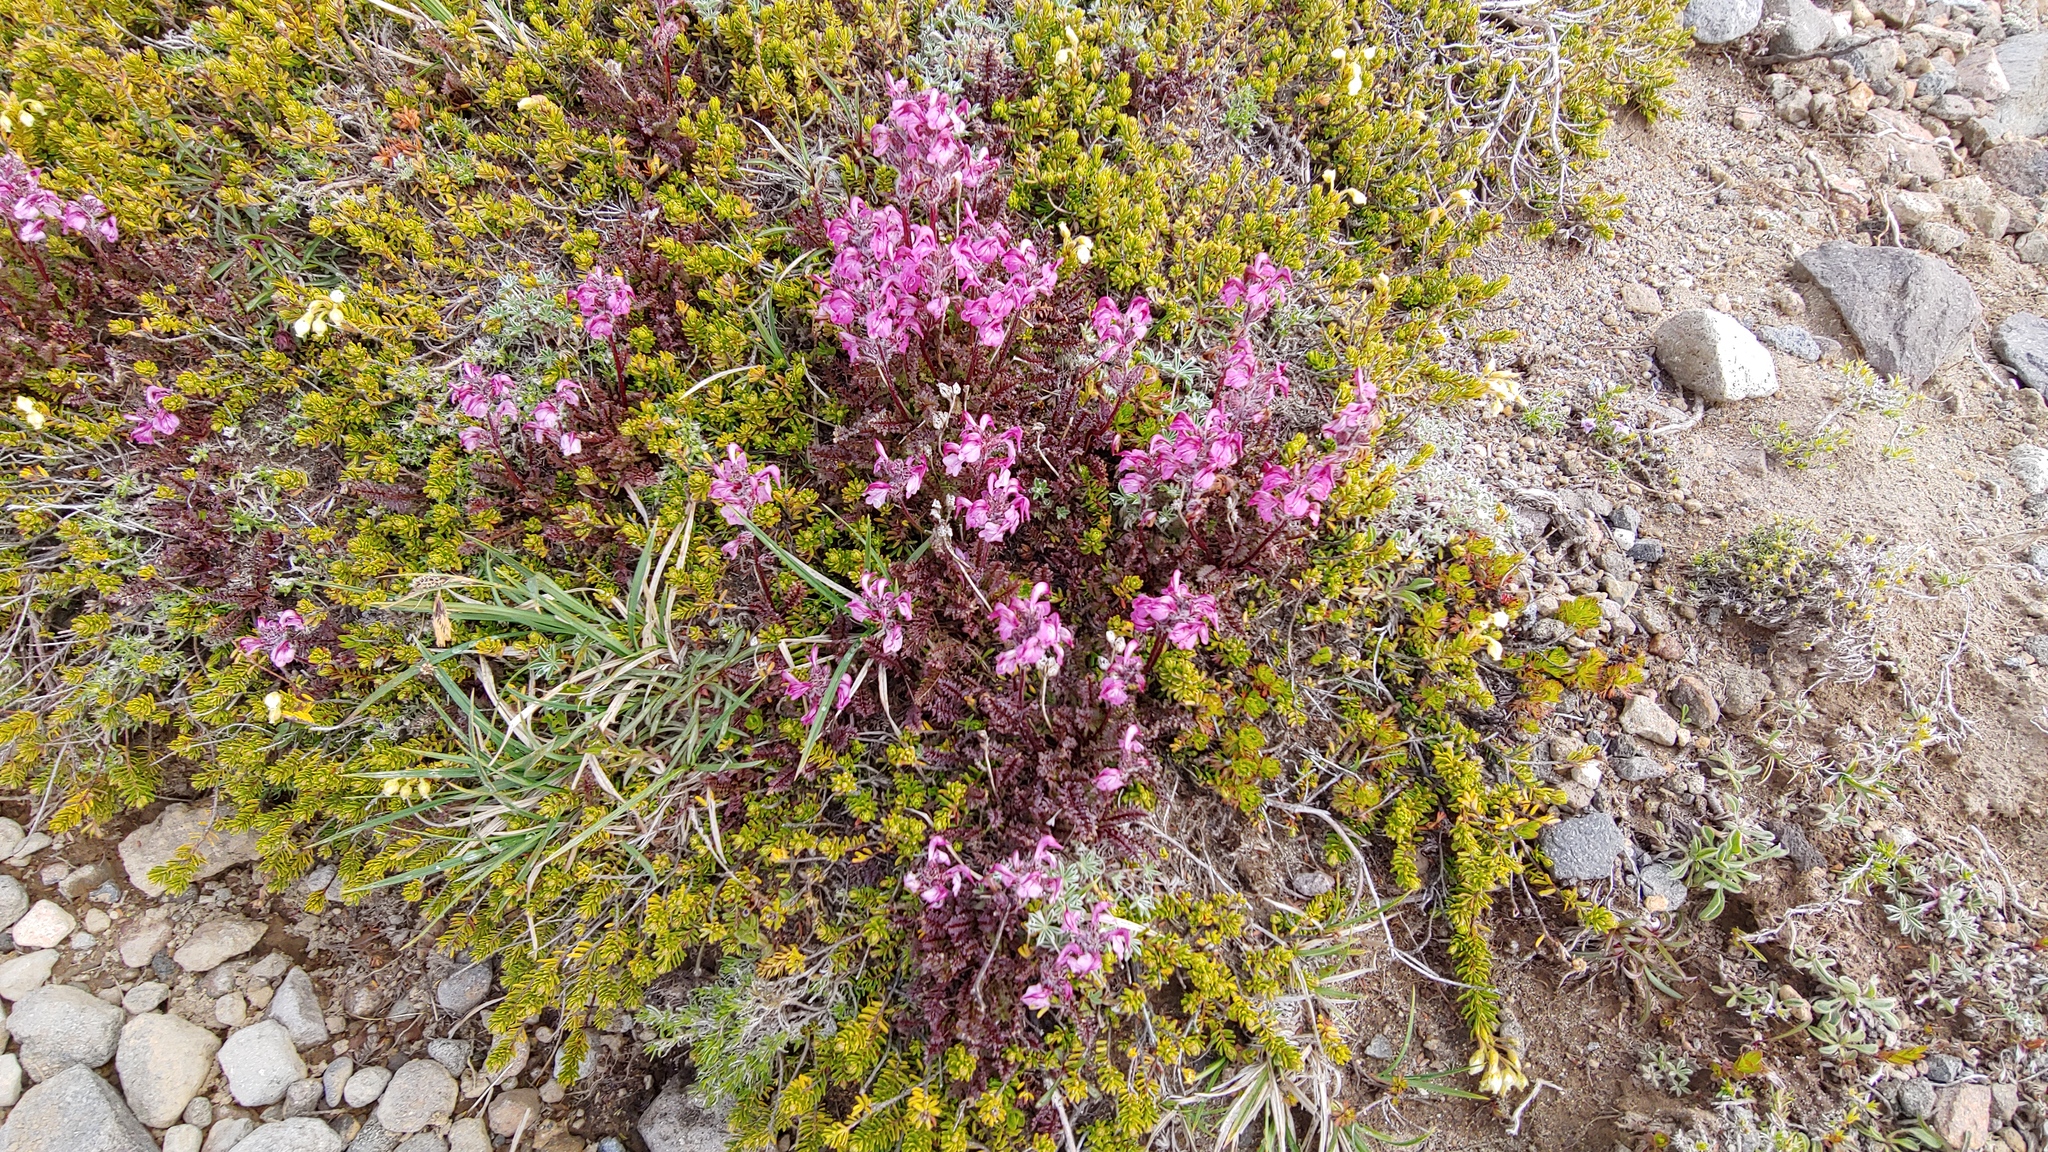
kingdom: Plantae
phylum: Tracheophyta
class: Magnoliopsida
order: Lamiales
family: Orobanchaceae
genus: Pedicularis
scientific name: Pedicularis ornithorhynchos
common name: Bird's-beak lousewort
